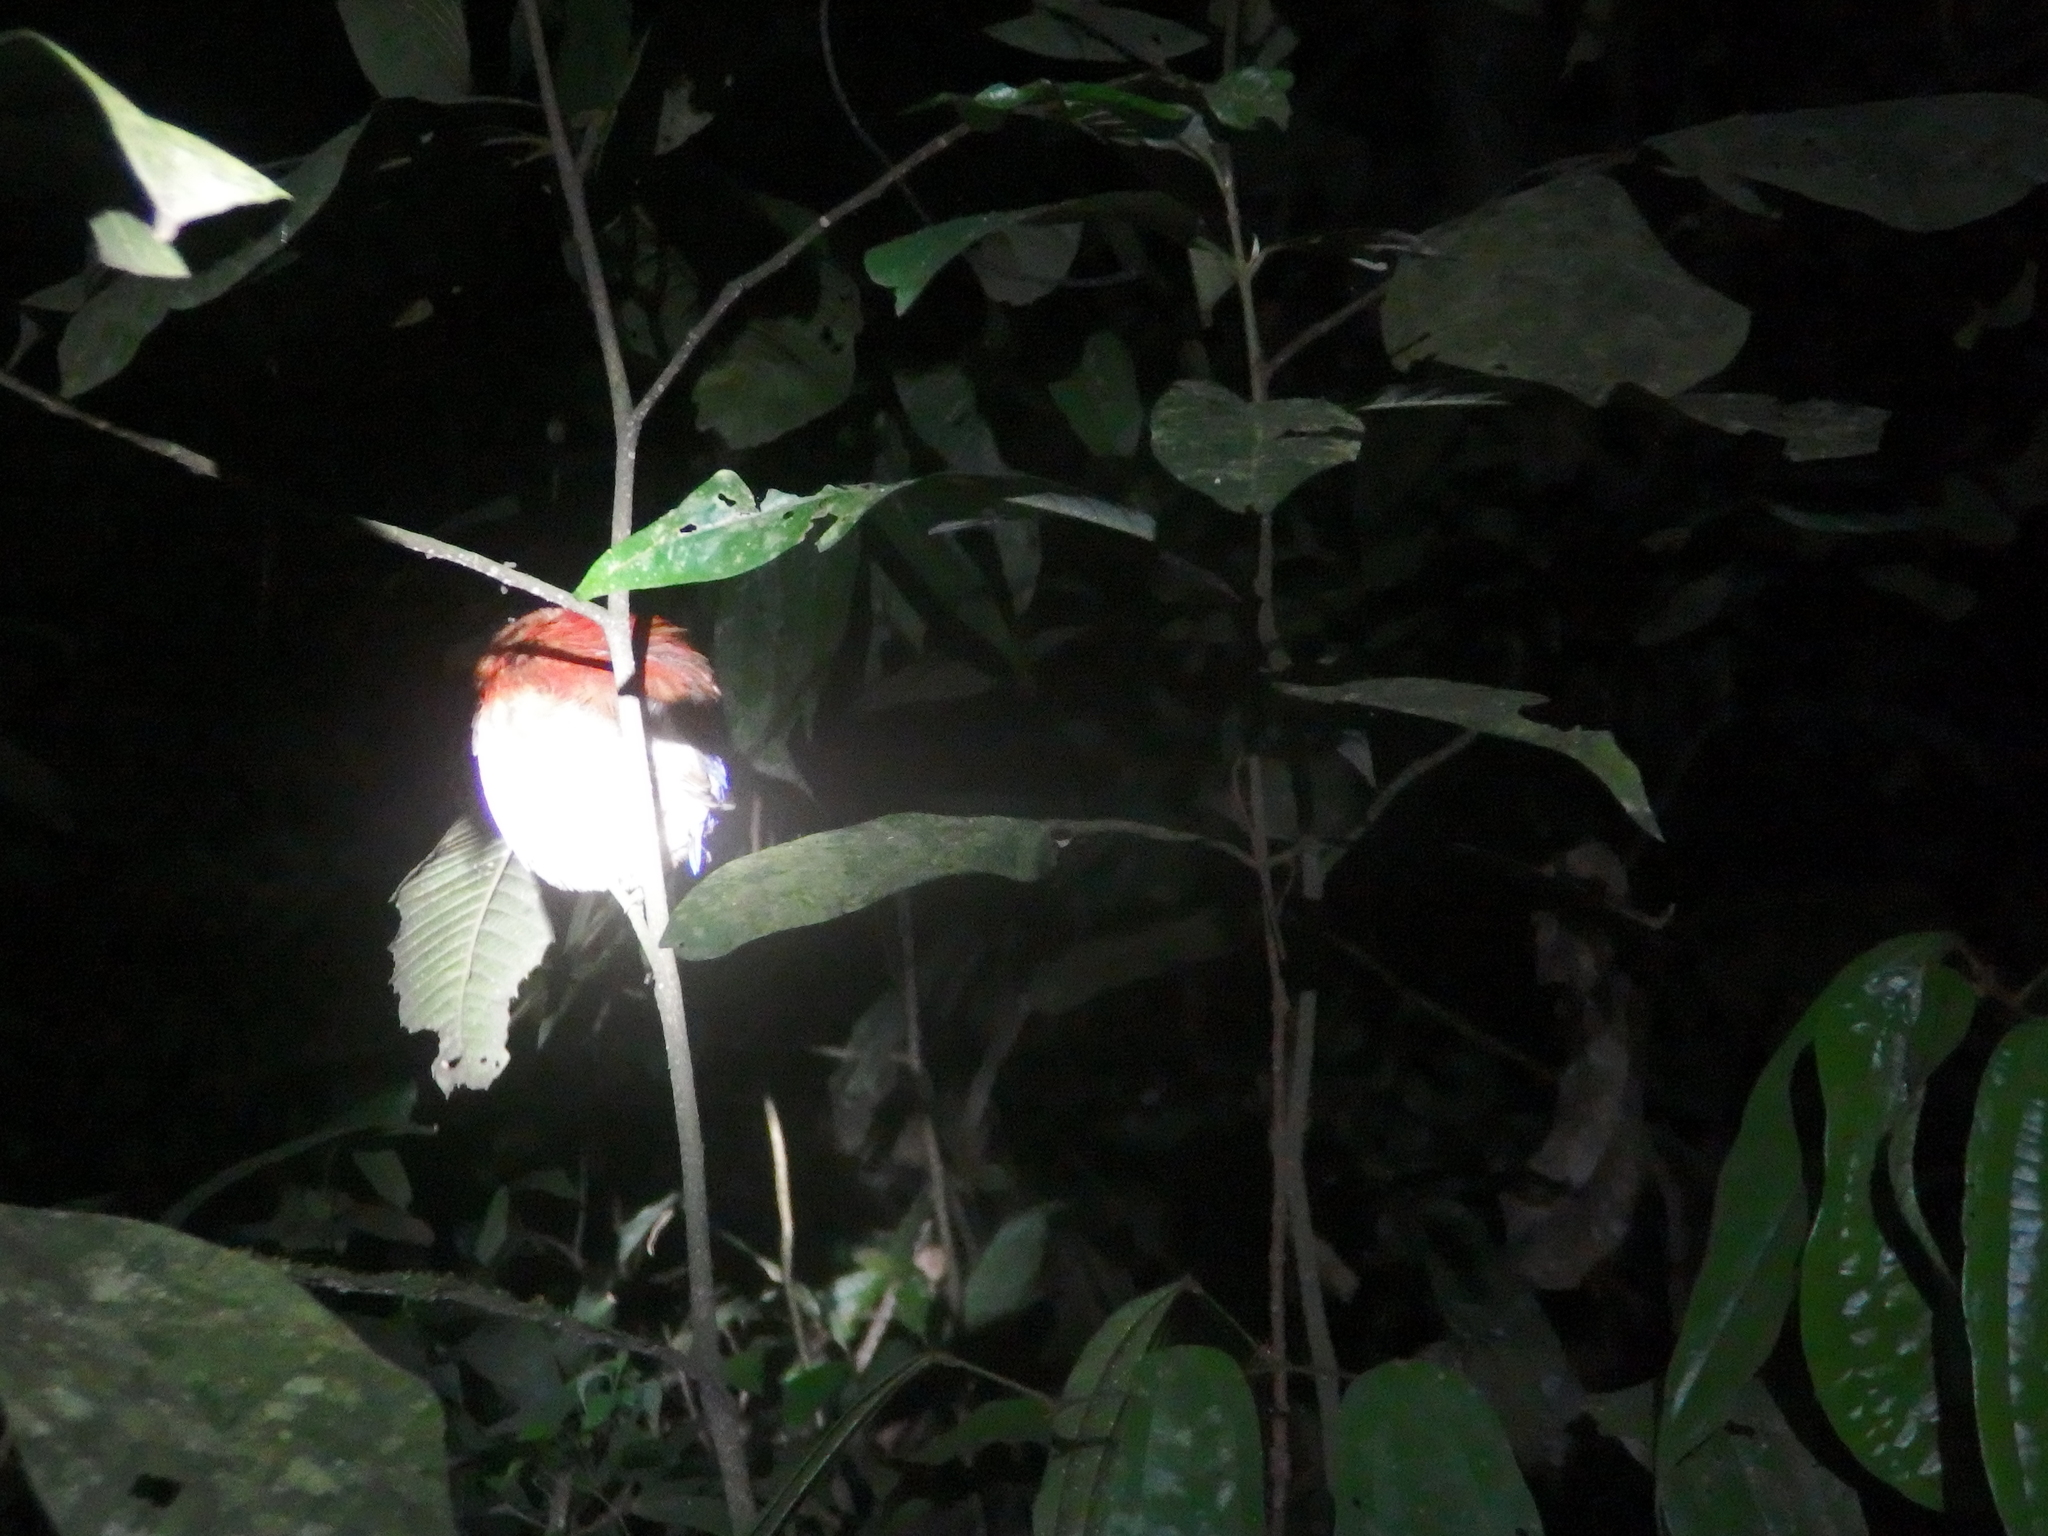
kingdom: Animalia
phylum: Chordata
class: Aves
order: Passeriformes
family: Pittidae
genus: Pitta
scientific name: Pitta baudii
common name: Blue-headed pitta
